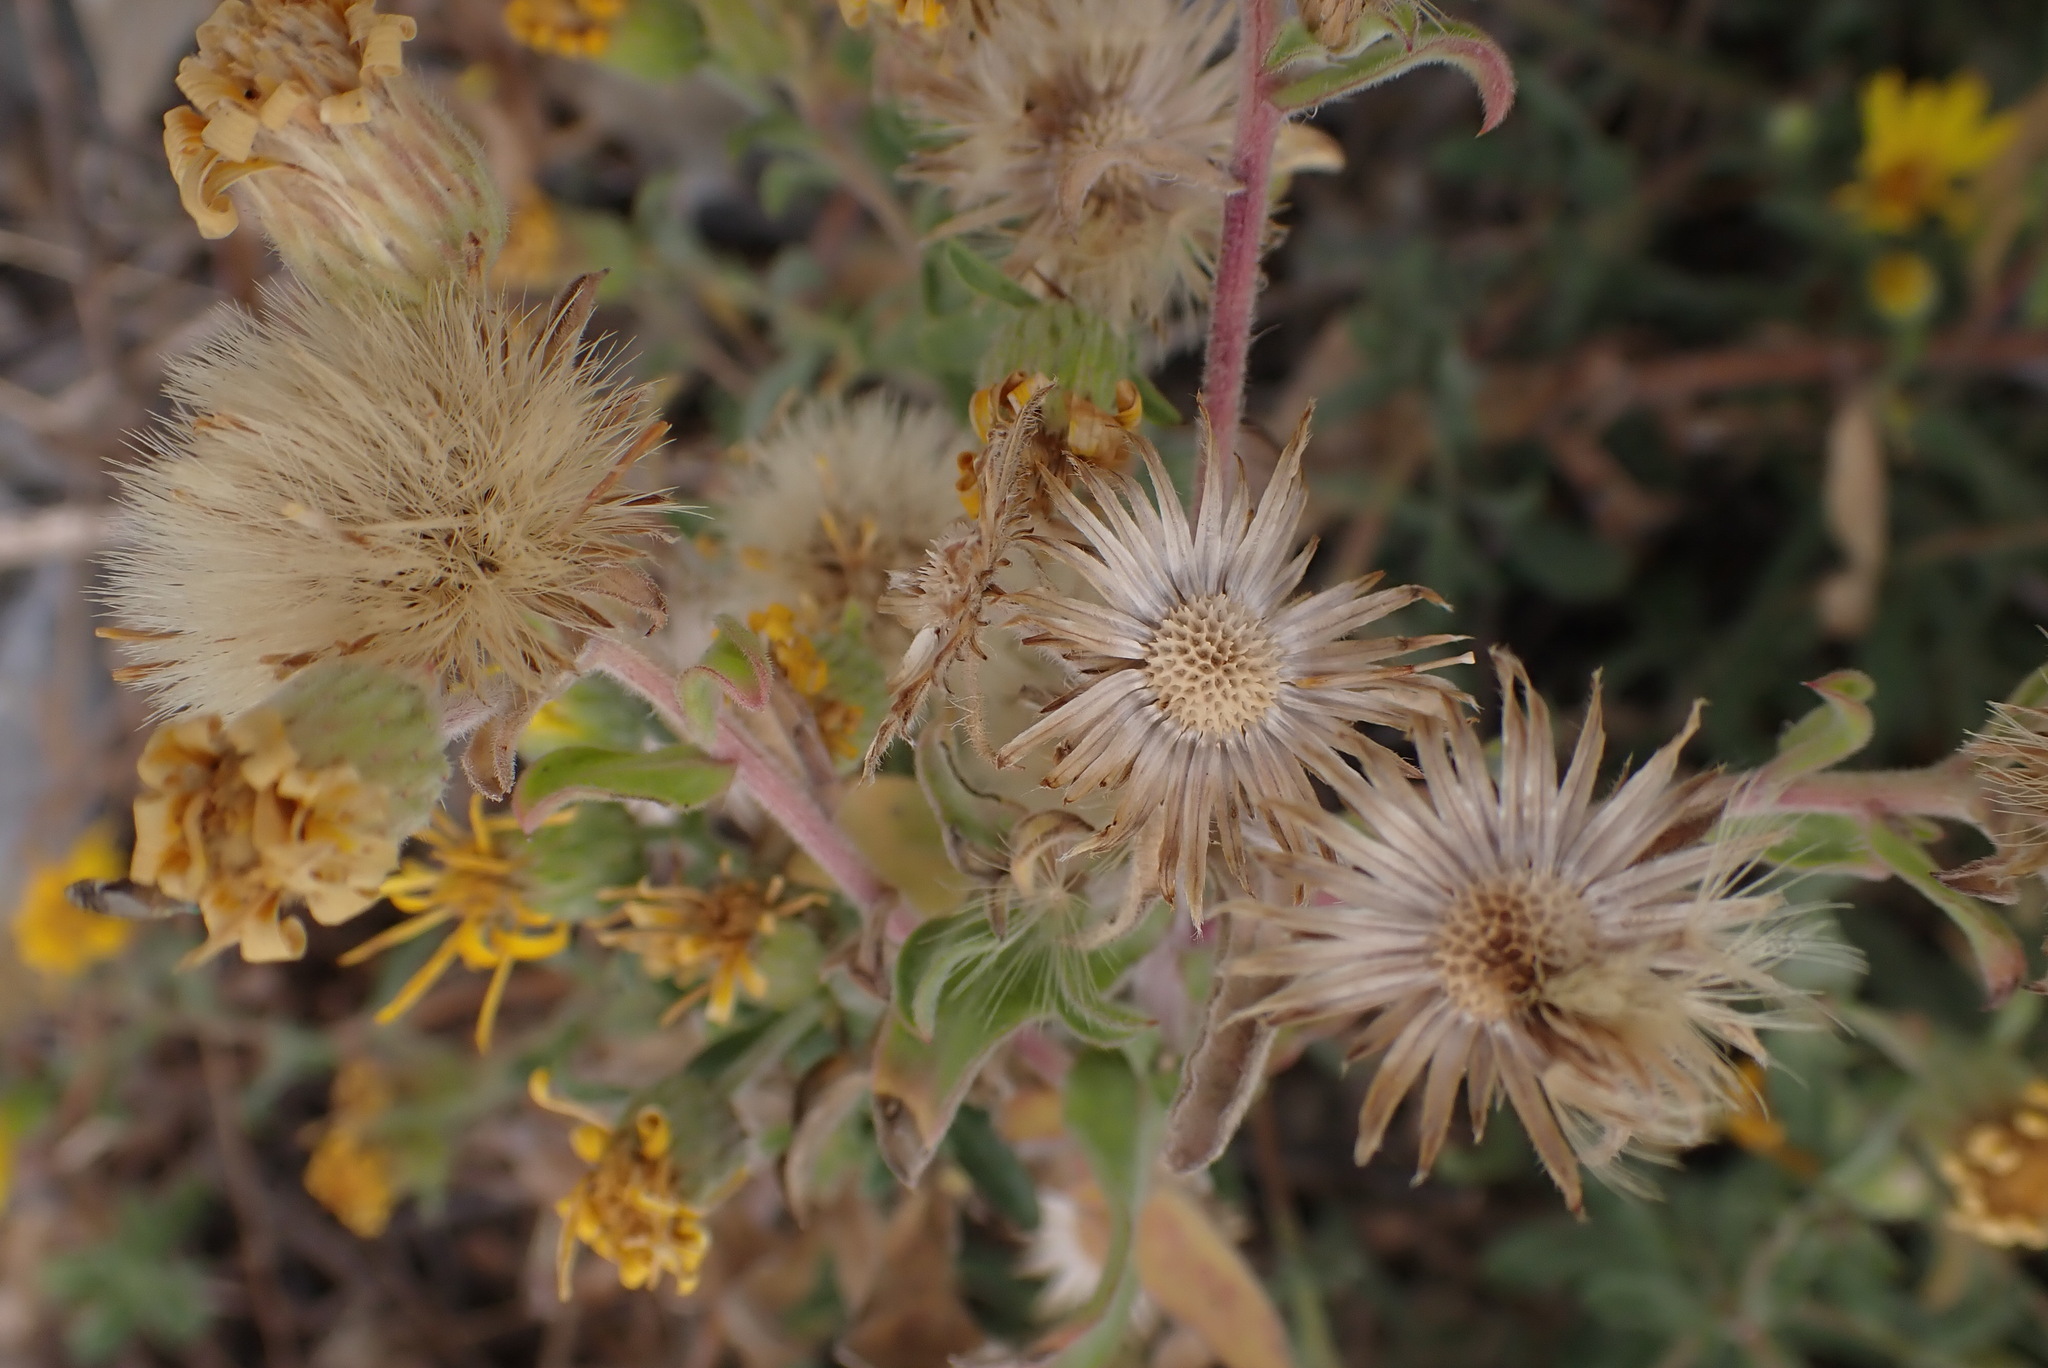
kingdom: Plantae
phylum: Tracheophyta
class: Magnoliopsida
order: Asterales
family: Asteraceae
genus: Heterotheca
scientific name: Heterotheca villosa
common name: Hairy false goldenaster
